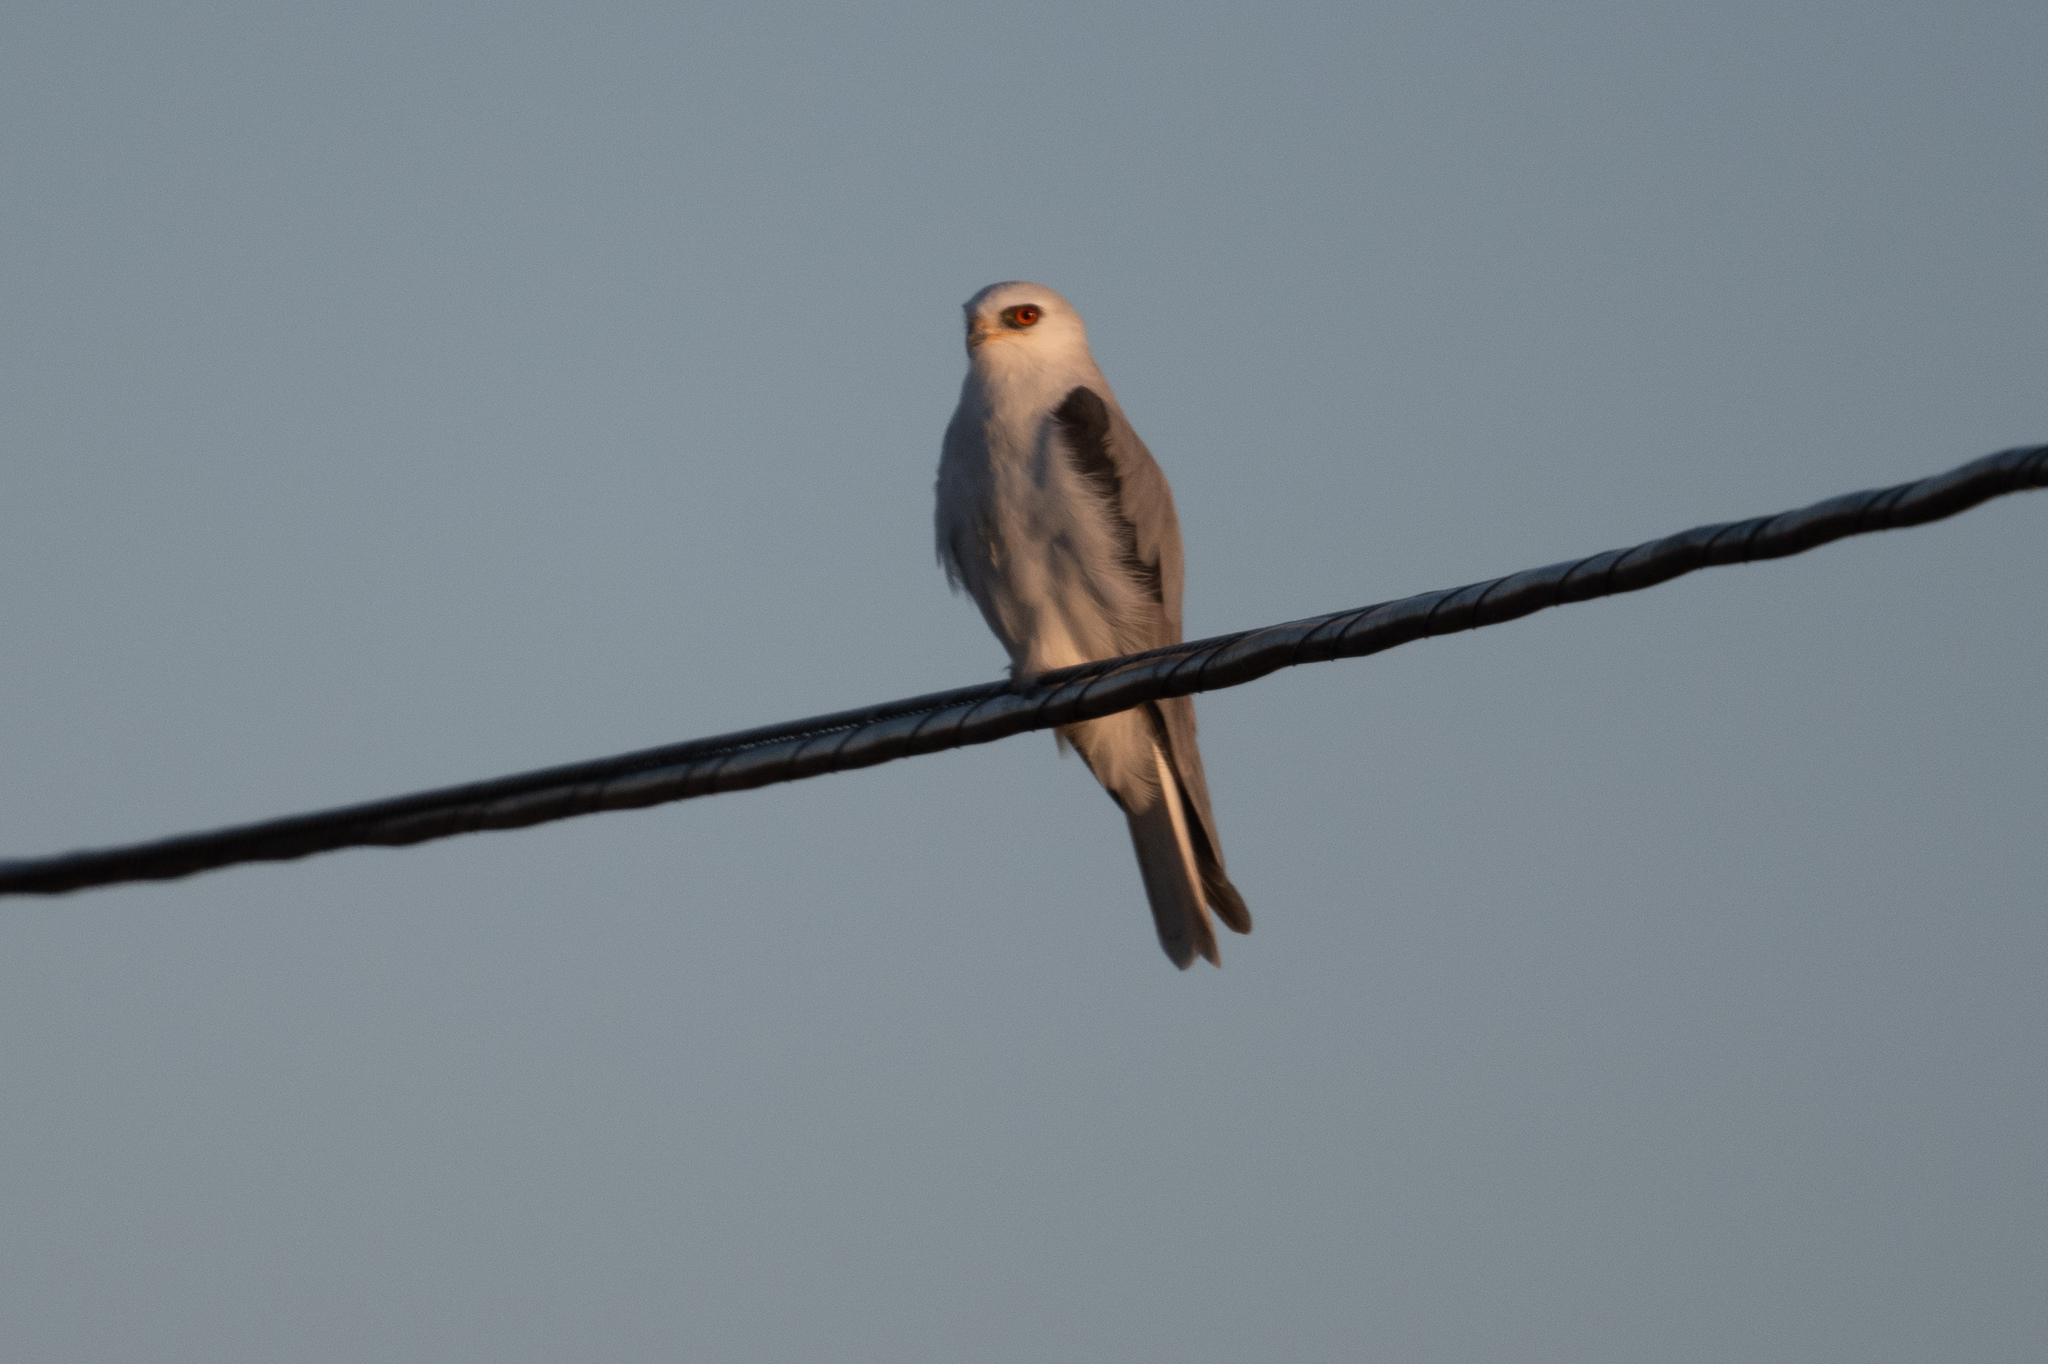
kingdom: Animalia
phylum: Chordata
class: Aves
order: Accipitriformes
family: Accipitridae
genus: Elanus
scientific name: Elanus leucurus
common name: White-tailed kite
